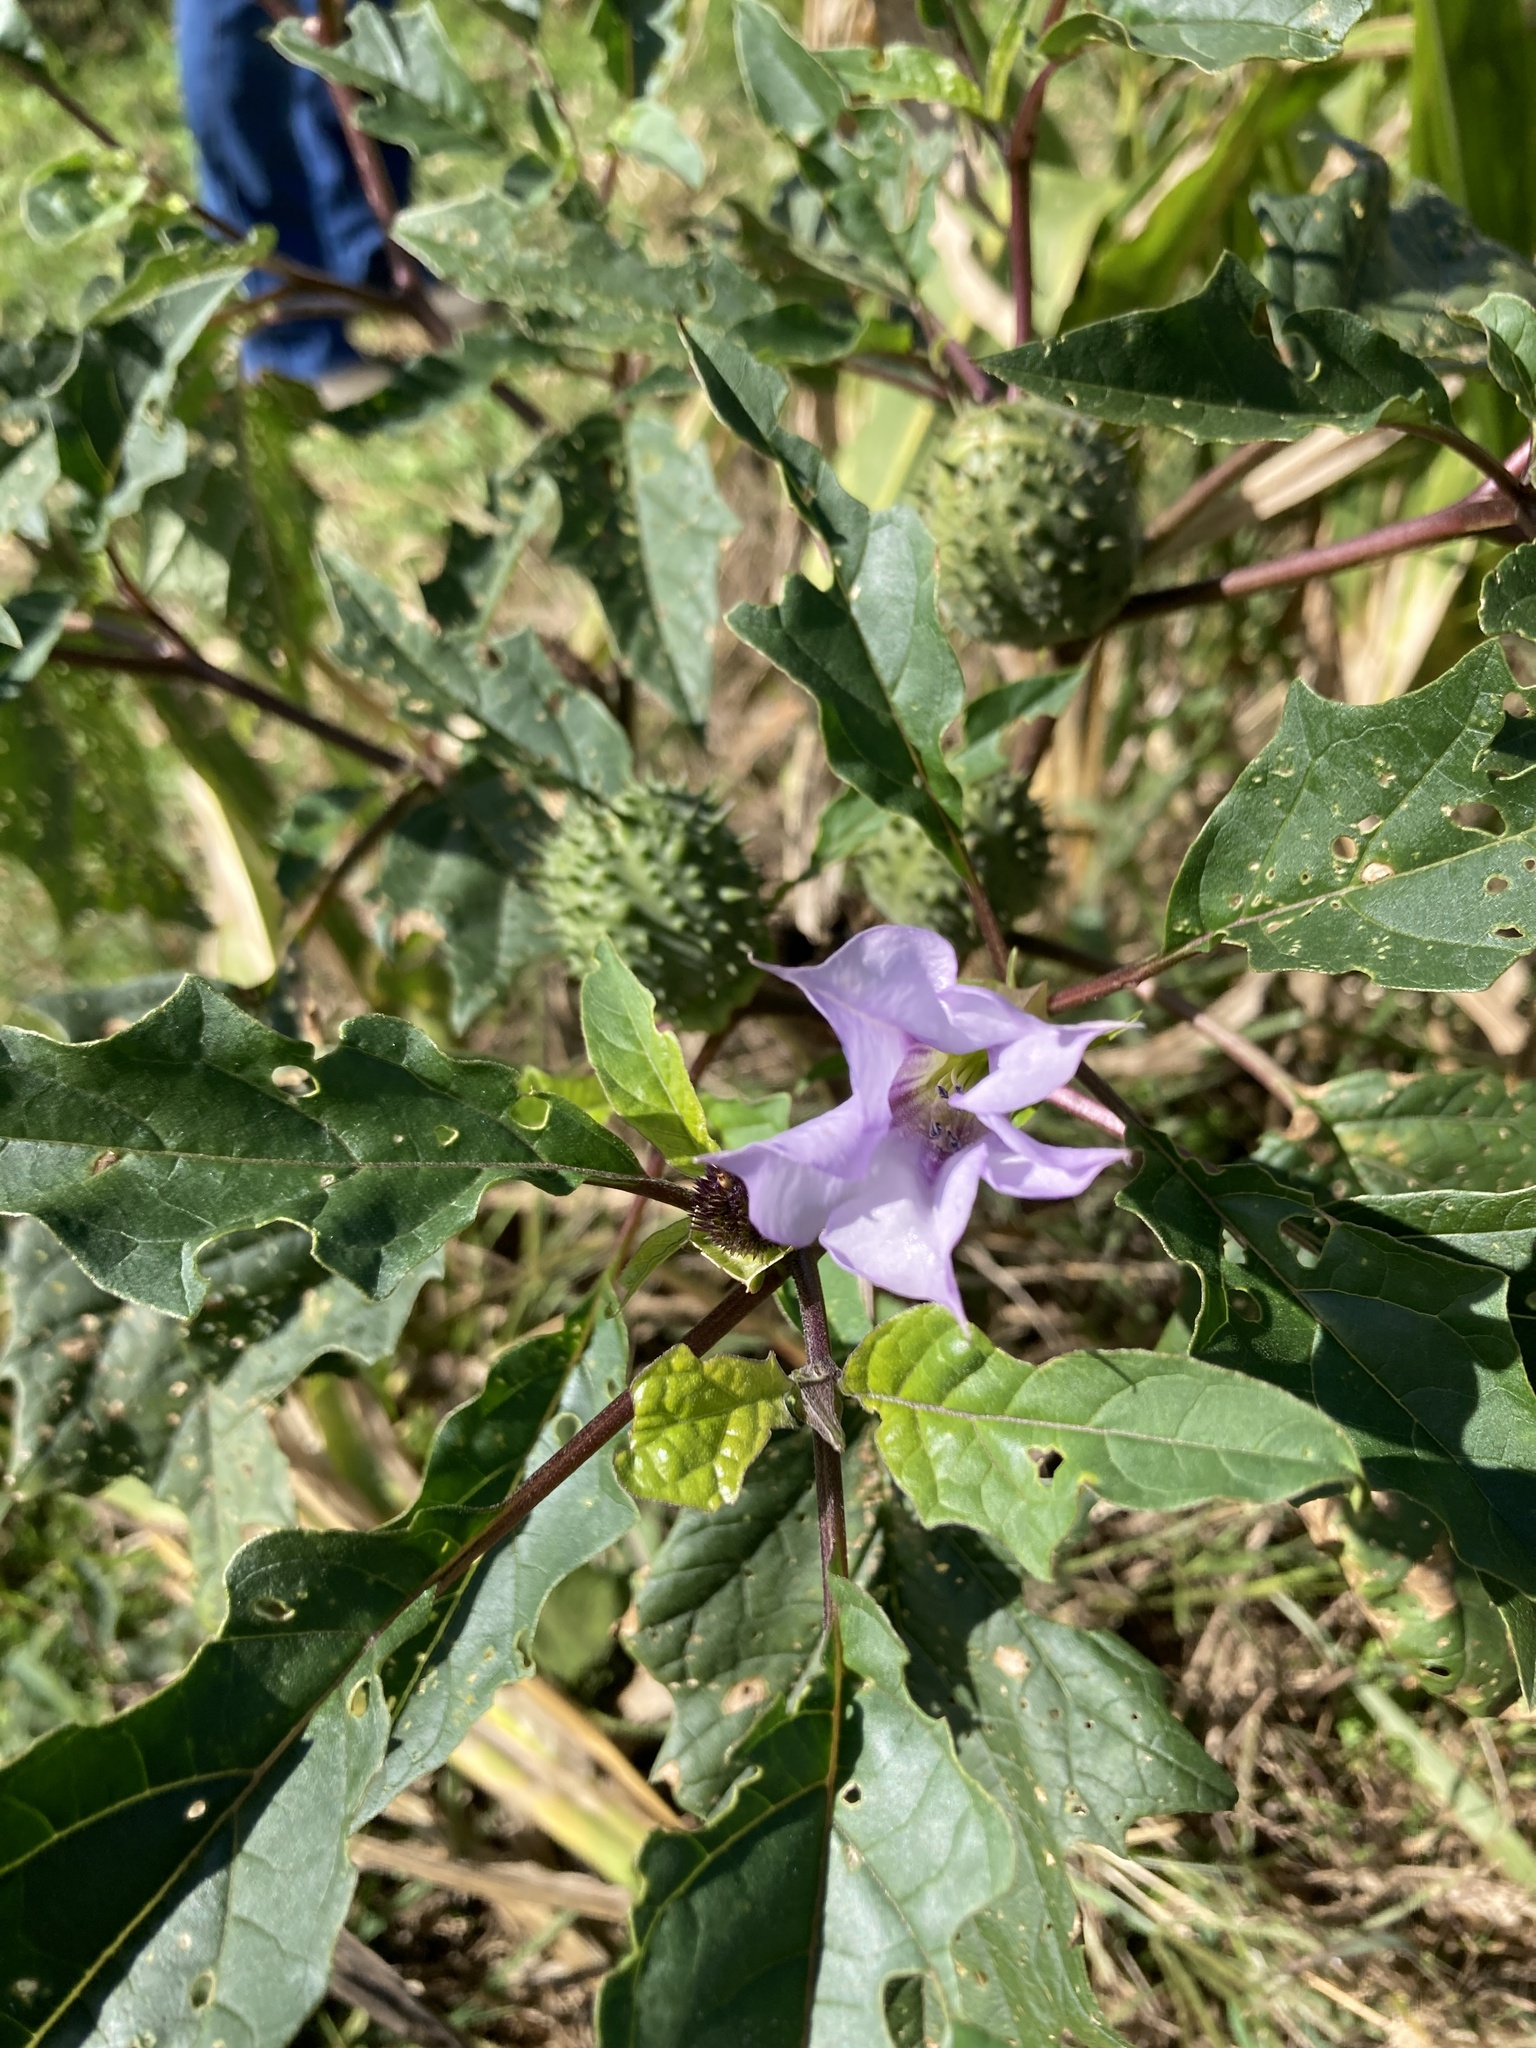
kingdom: Plantae
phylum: Tracheophyta
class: Magnoliopsida
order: Solanales
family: Solanaceae
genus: Datura
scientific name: Datura stramonium
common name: Thorn-apple
